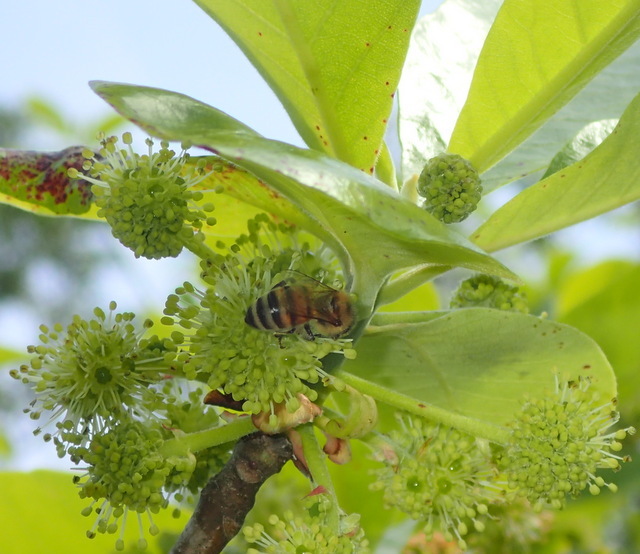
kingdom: Animalia
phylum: Arthropoda
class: Insecta
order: Hymenoptera
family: Apidae
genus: Apis
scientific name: Apis mellifera
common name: Honey bee
